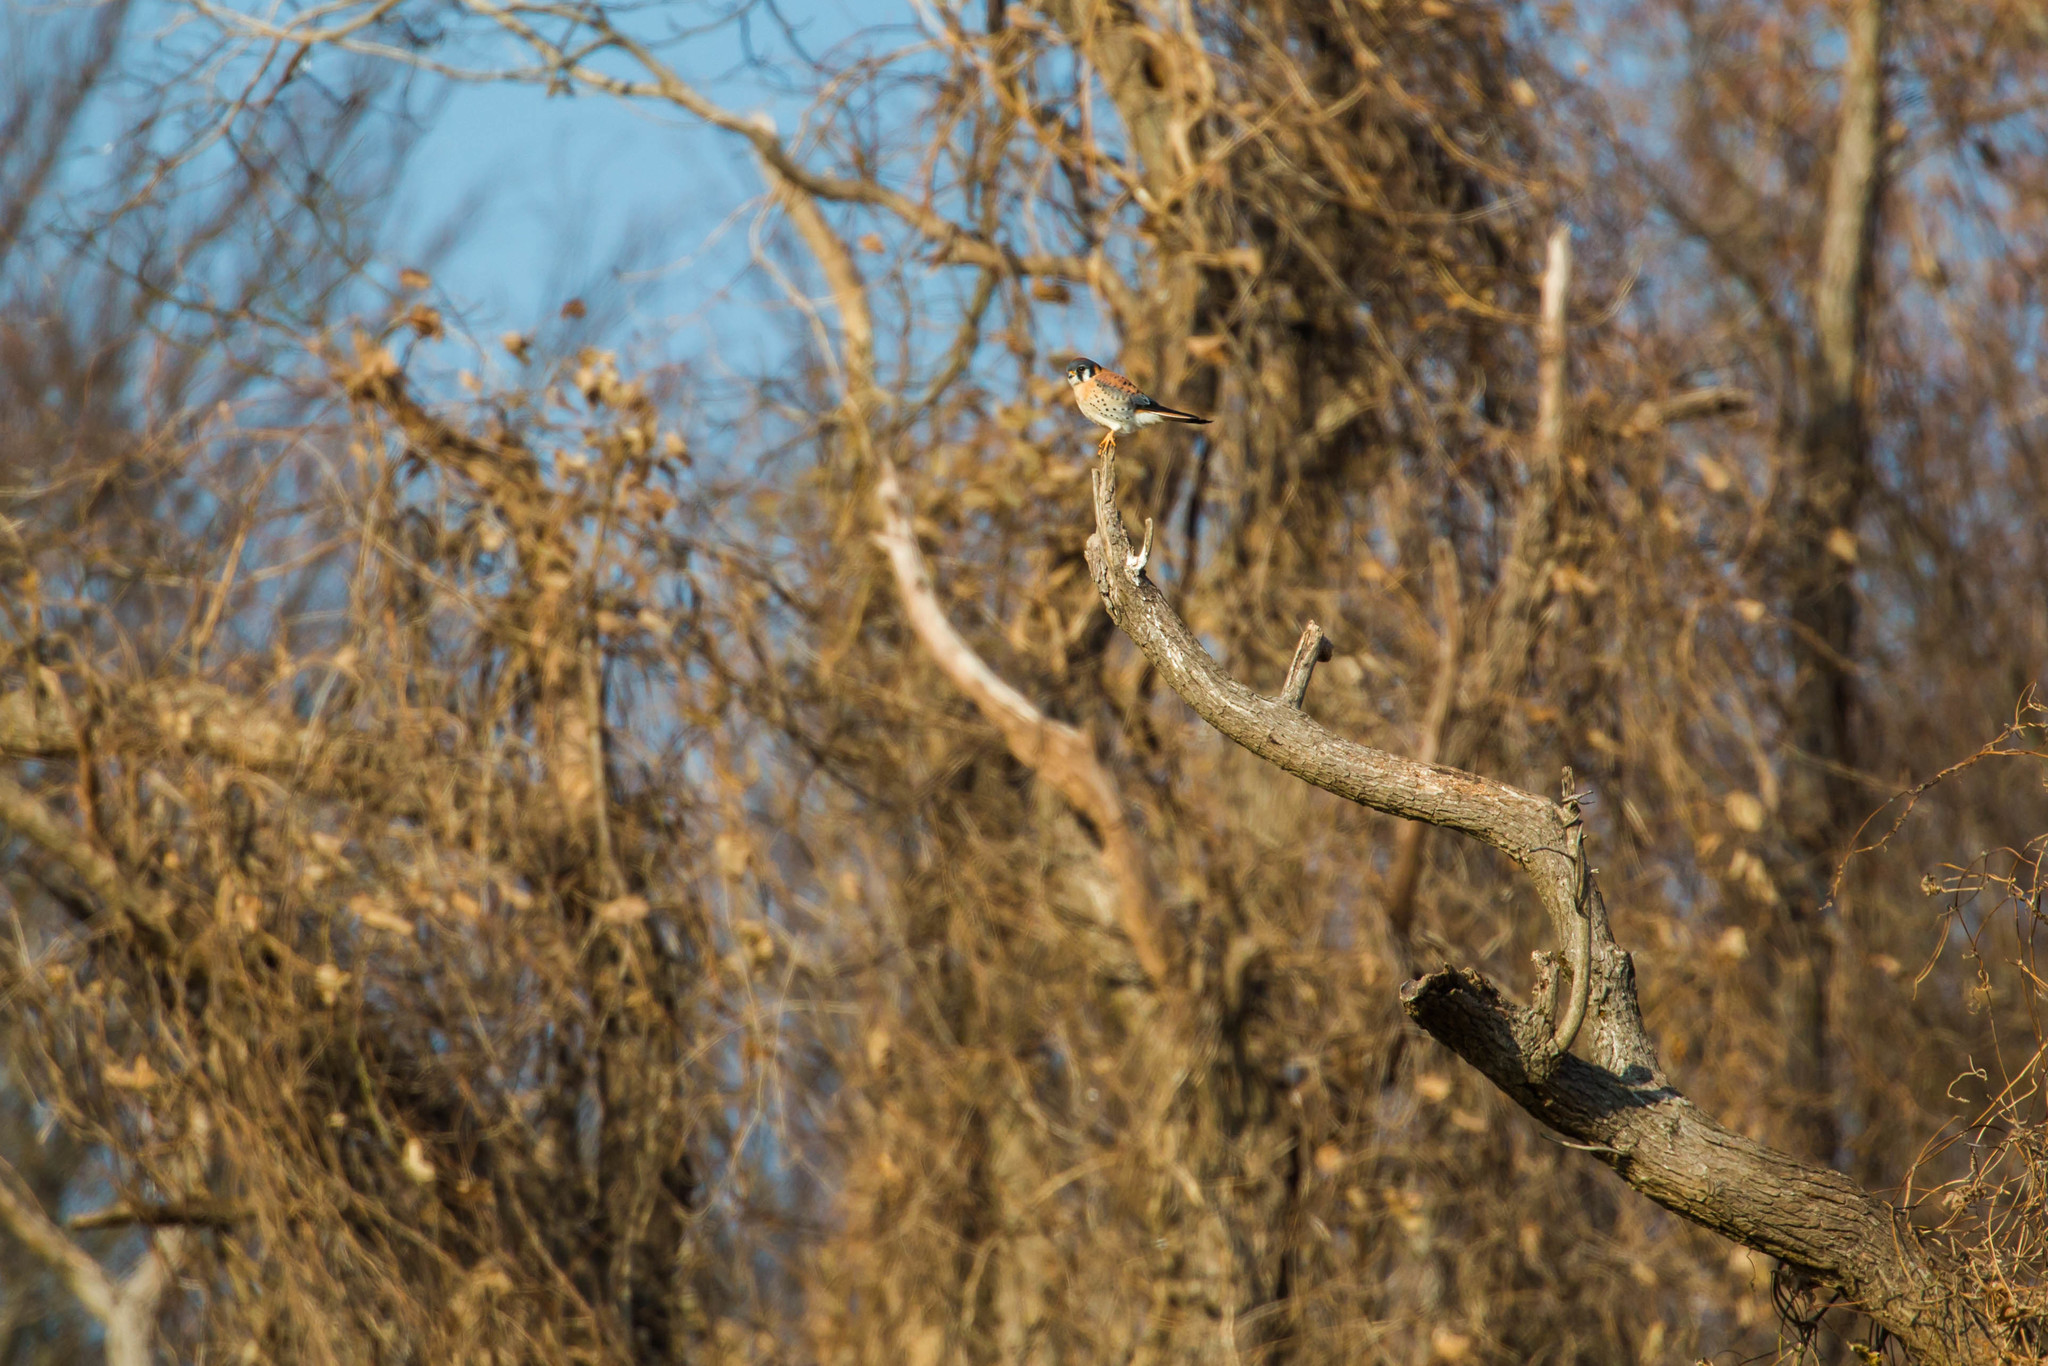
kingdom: Animalia
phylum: Chordata
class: Aves
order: Falconiformes
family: Falconidae
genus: Falco
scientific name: Falco sparverius
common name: American kestrel
